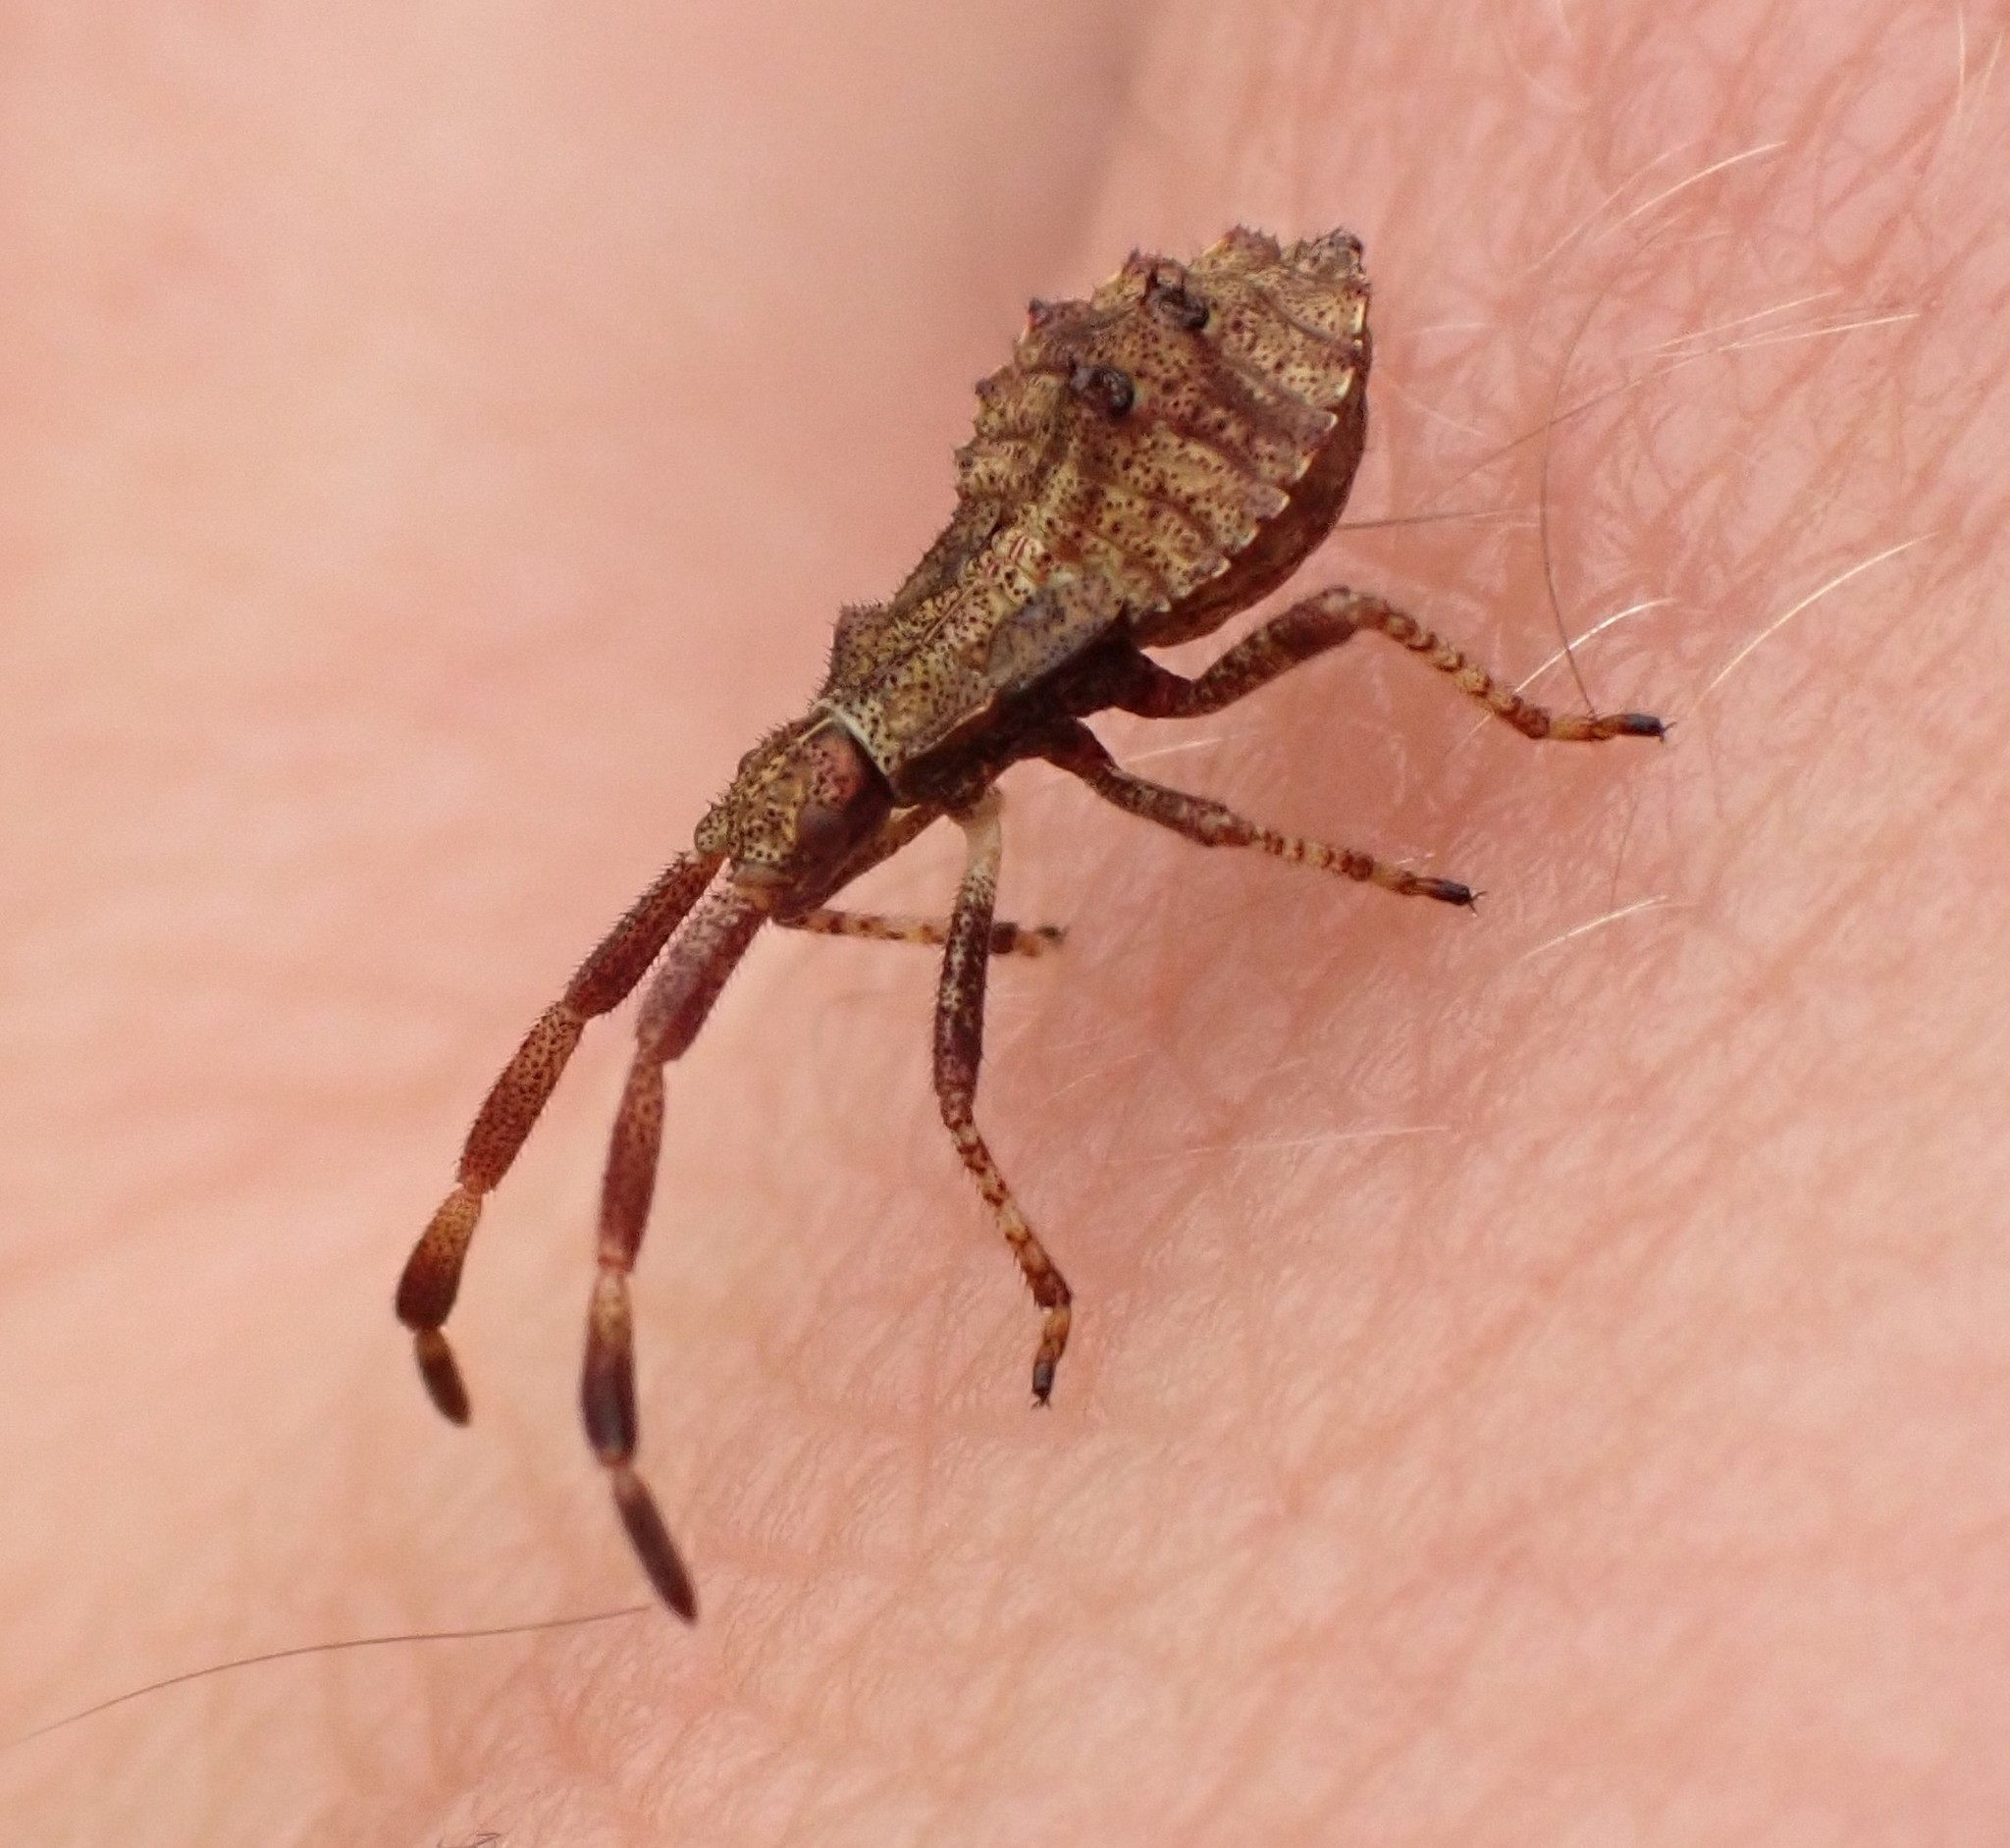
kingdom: Animalia
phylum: Arthropoda
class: Insecta
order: Hemiptera
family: Coreidae
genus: Coreus
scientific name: Coreus marginatus
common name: Dock bug
